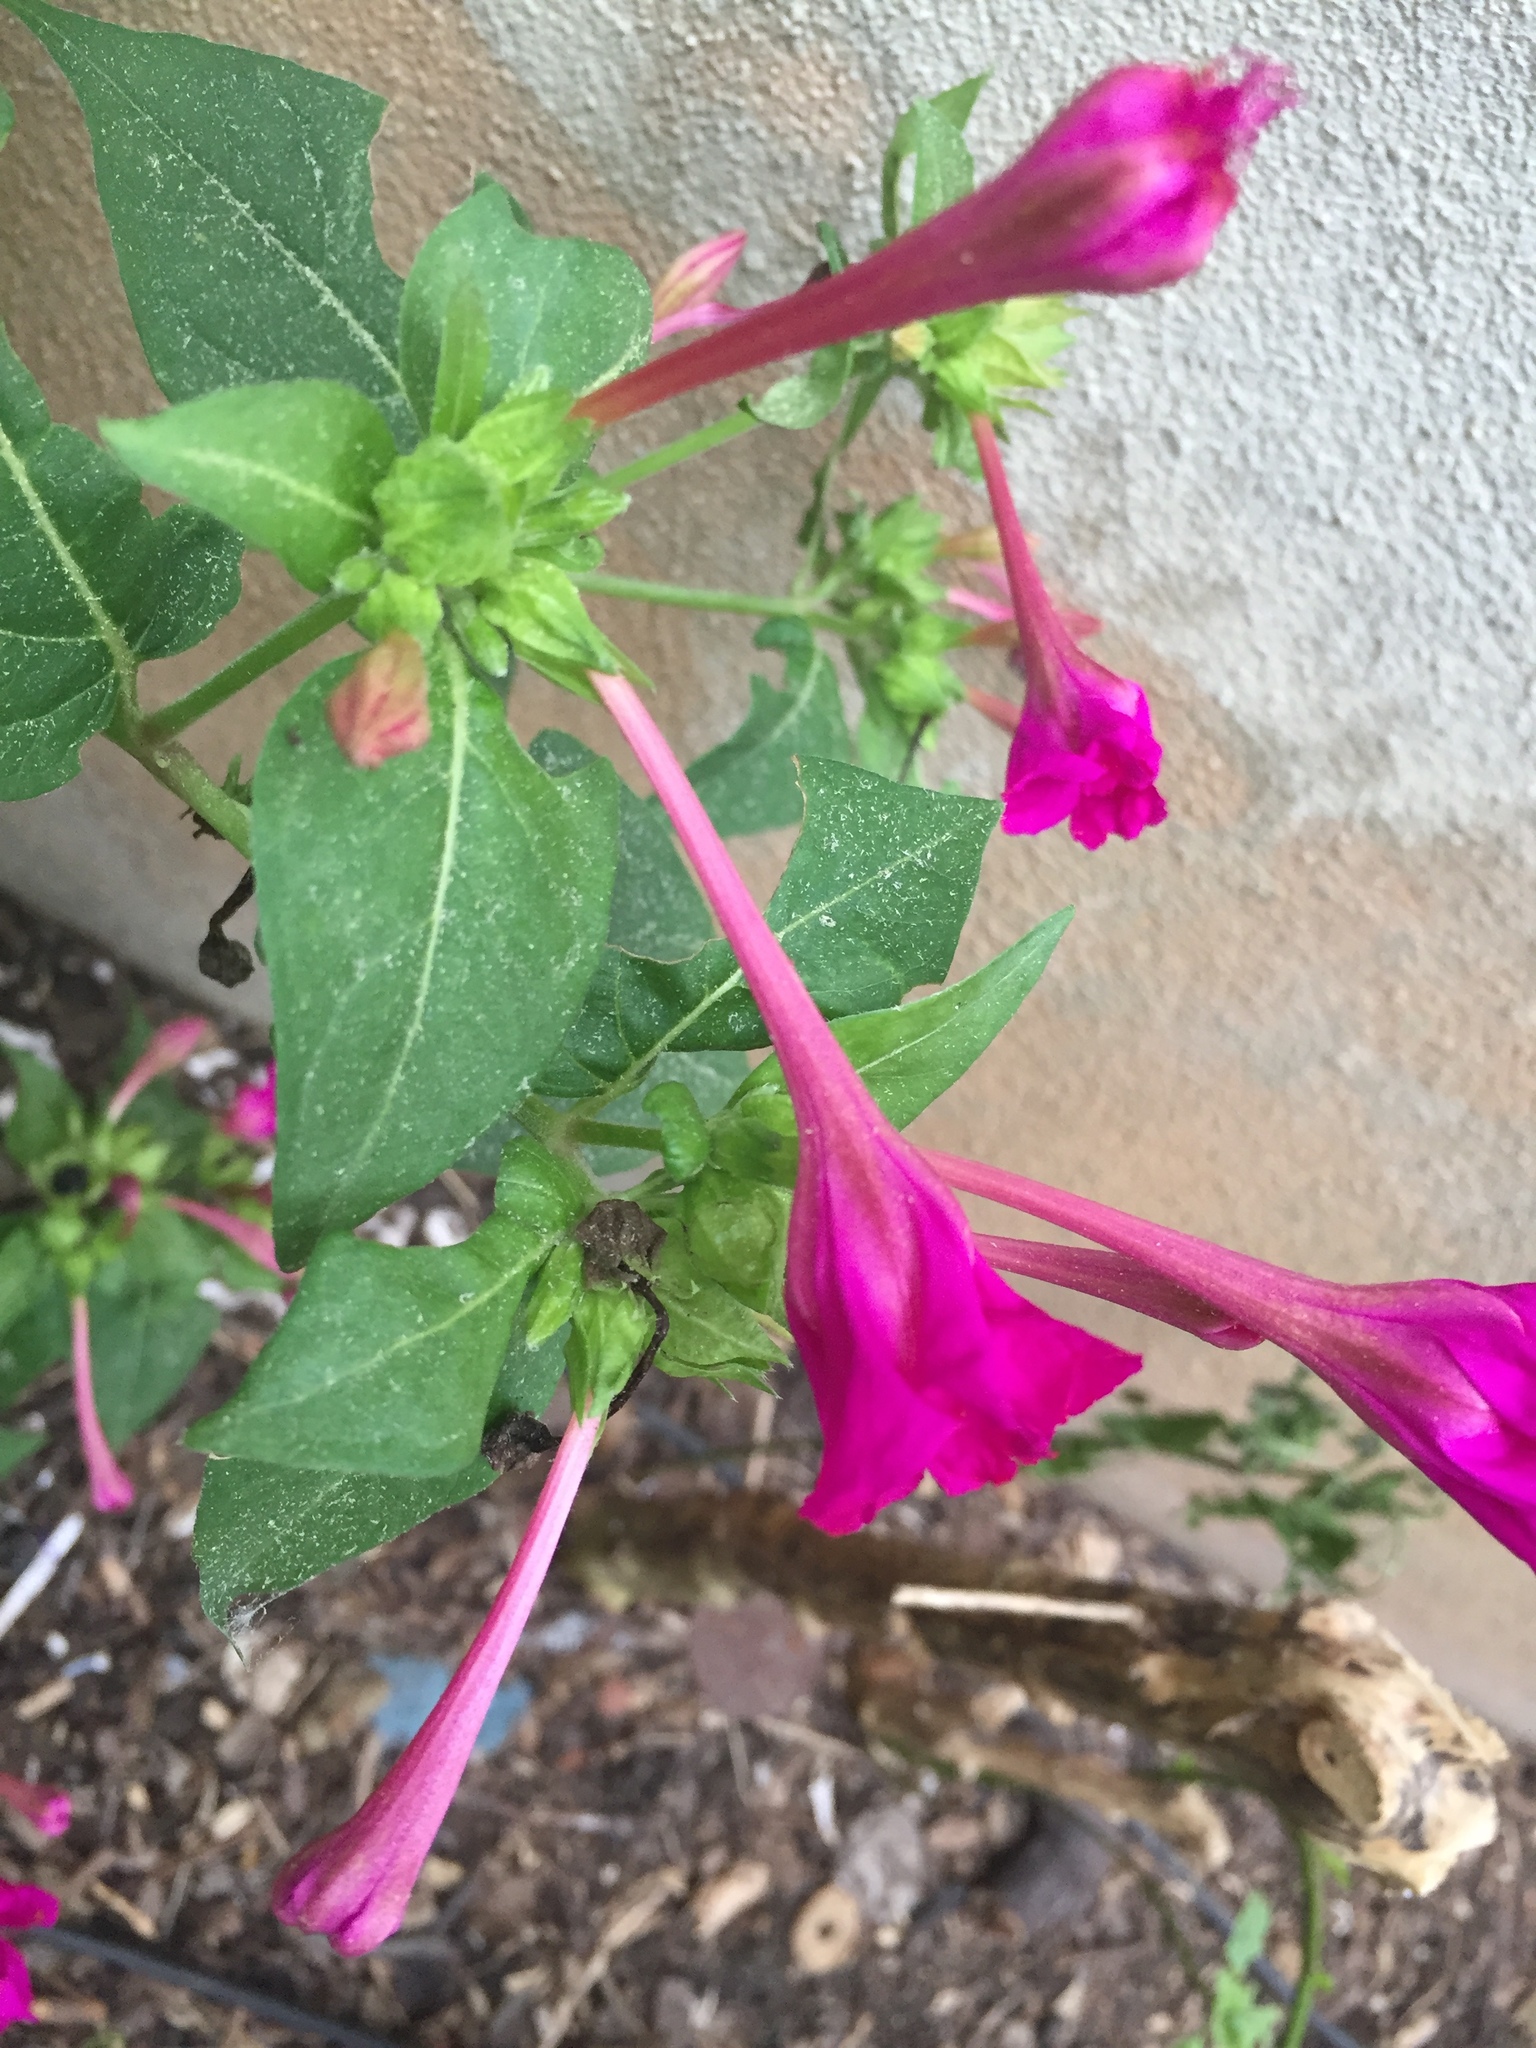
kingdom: Plantae
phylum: Tracheophyta
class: Magnoliopsida
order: Caryophyllales
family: Nyctaginaceae
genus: Mirabilis
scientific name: Mirabilis jalapa
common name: Marvel-of-peru
